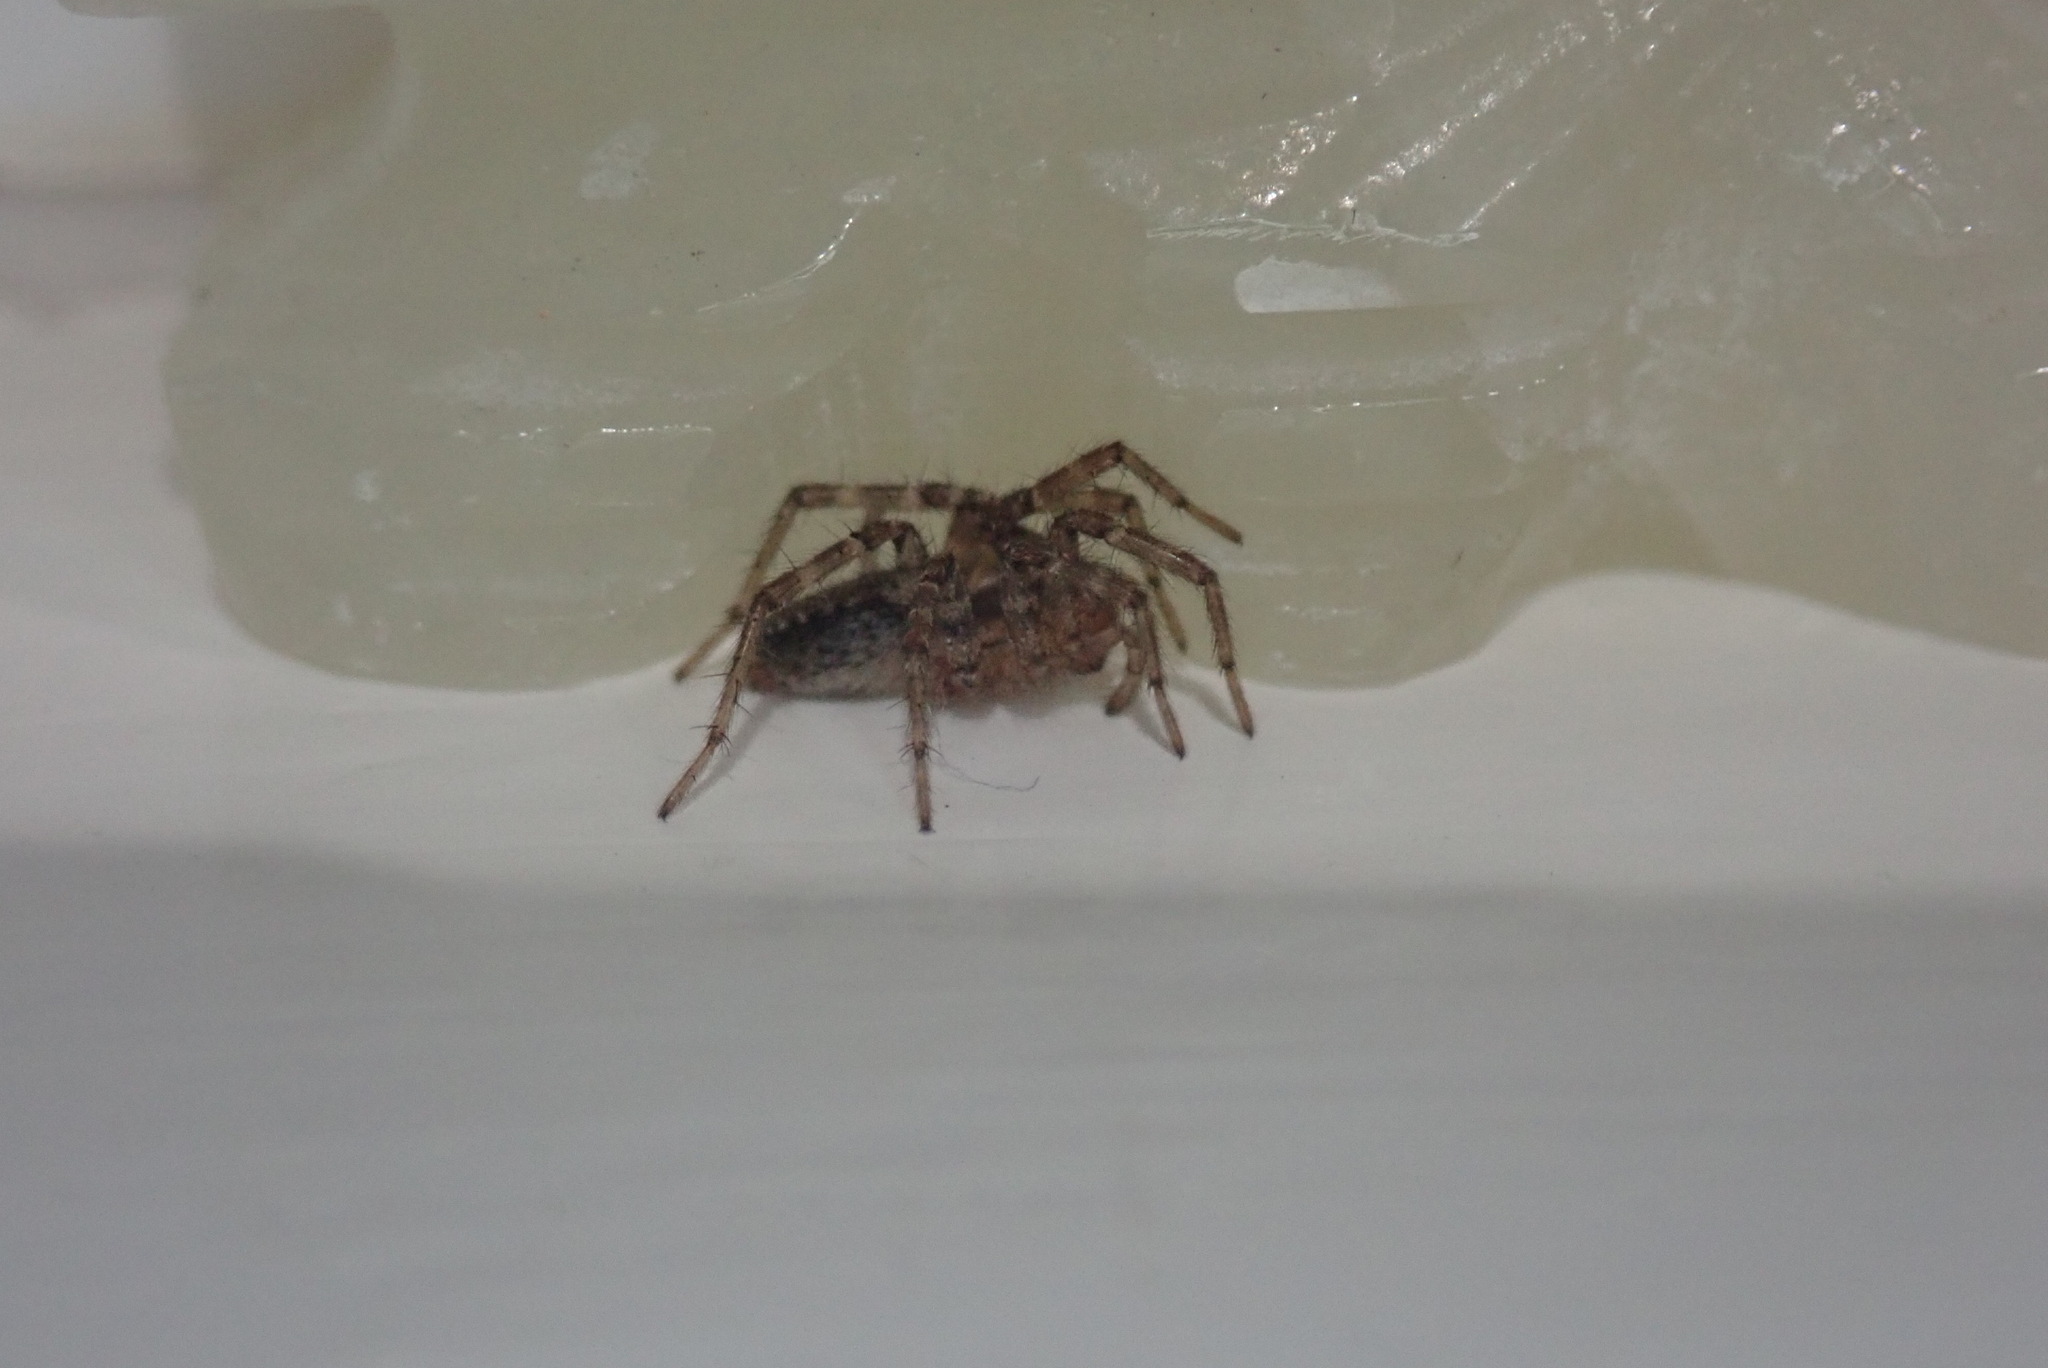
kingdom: Animalia
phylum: Arthropoda
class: Arachnida
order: Araneae
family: Agelenidae
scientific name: Agelenidae
